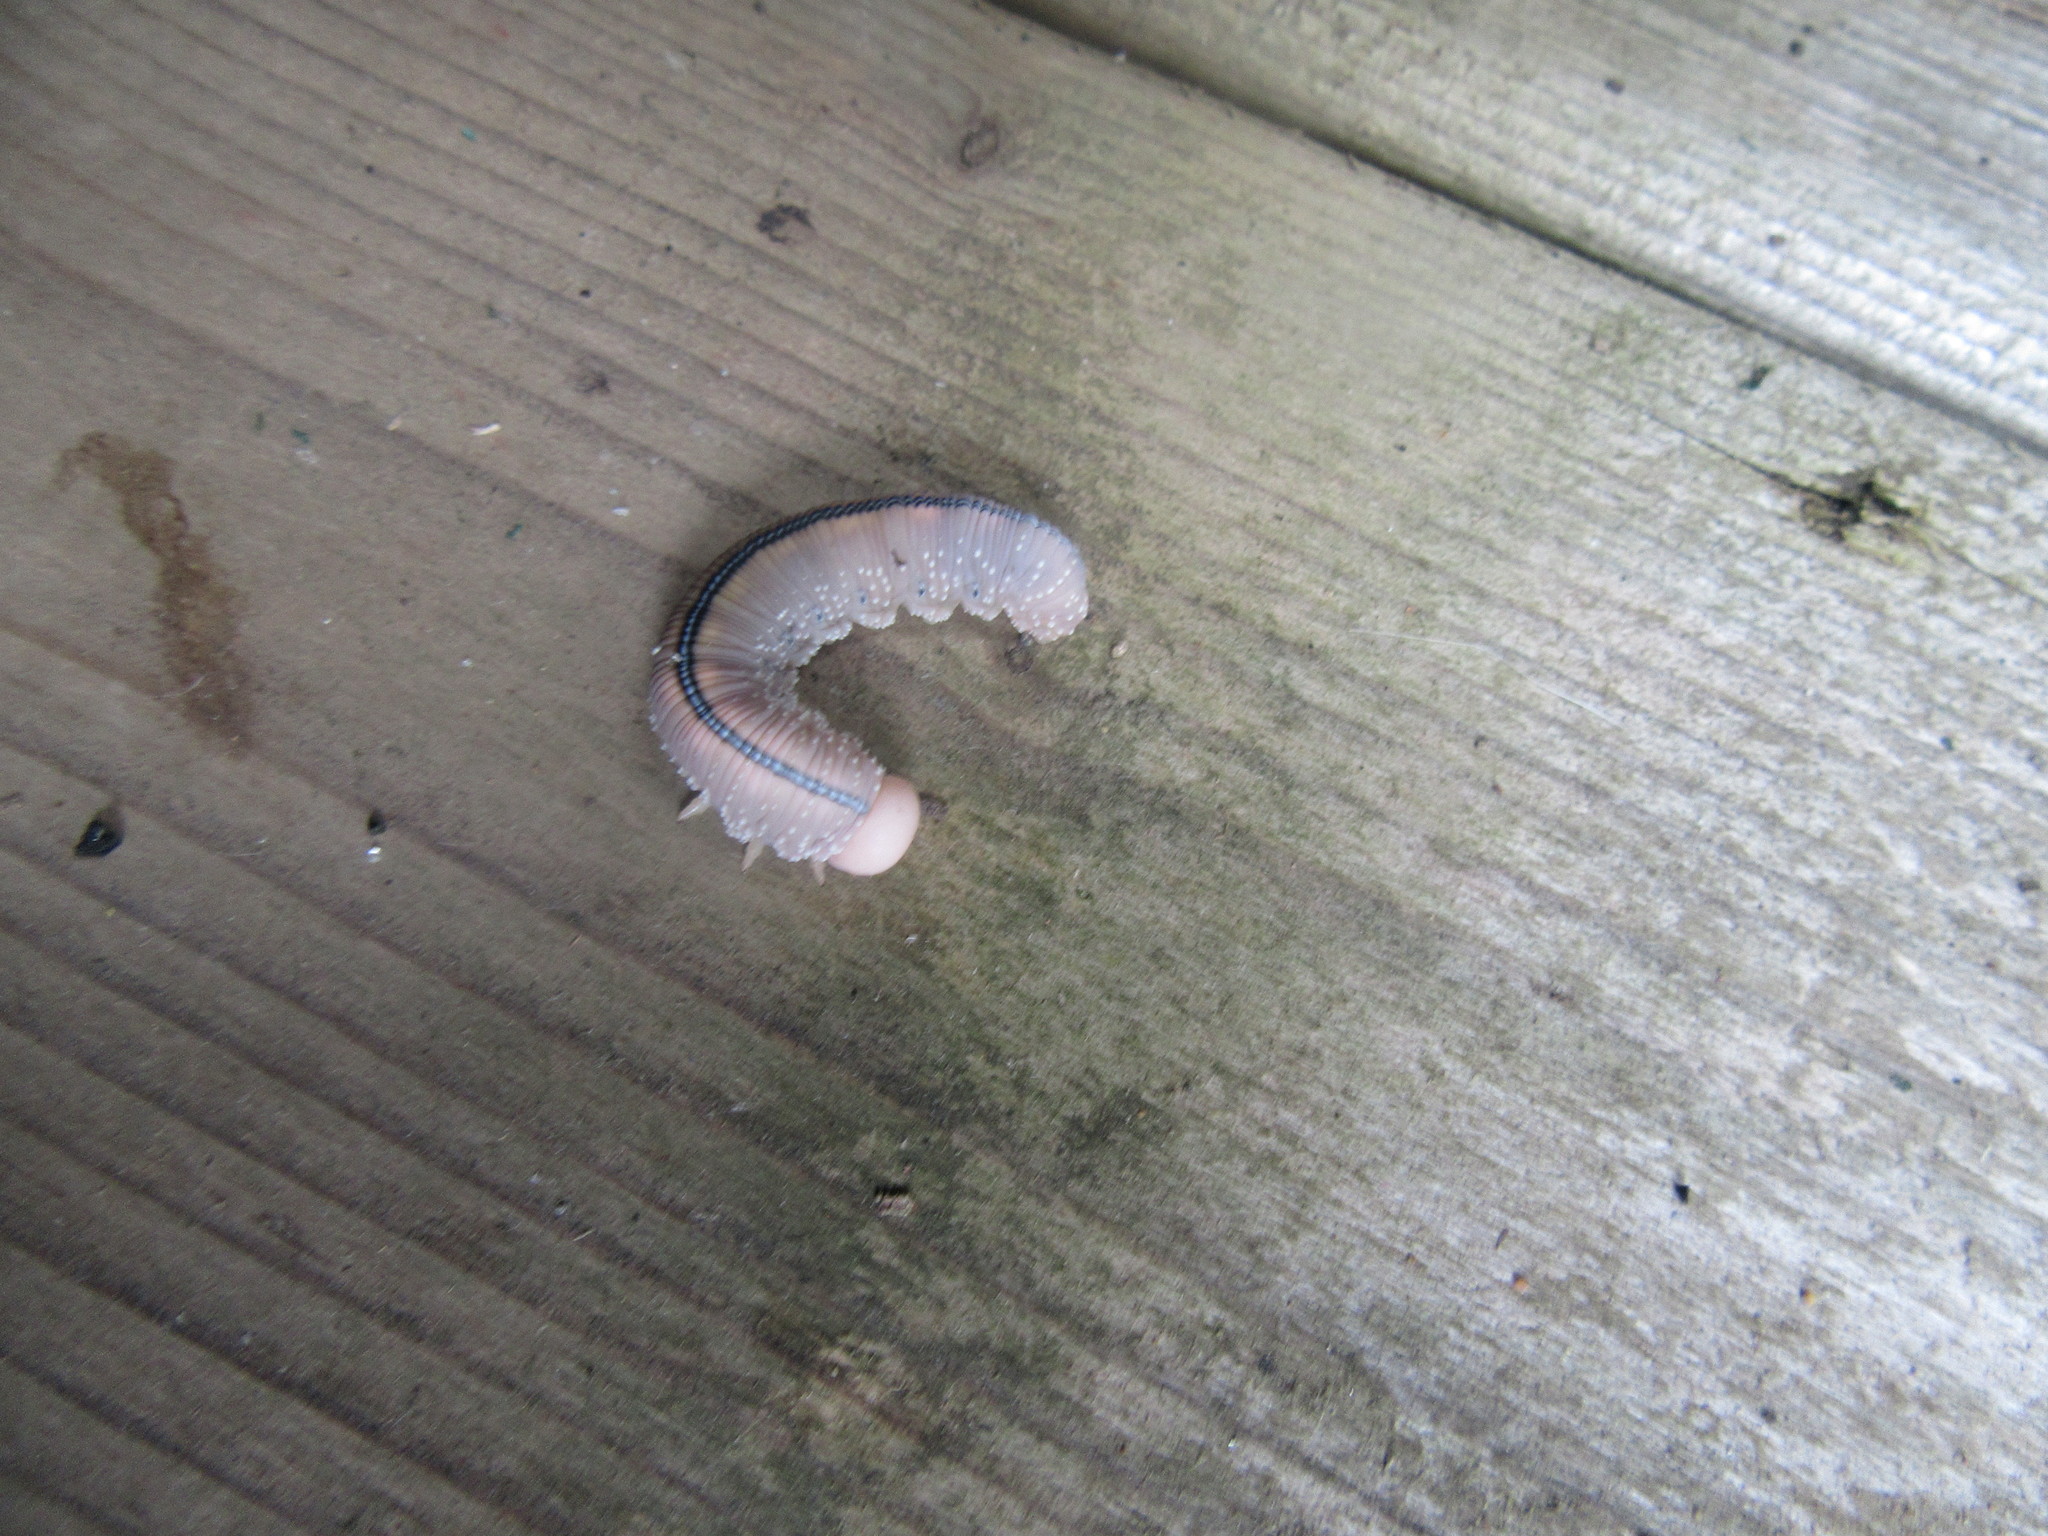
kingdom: Animalia
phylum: Arthropoda
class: Insecta
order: Hymenoptera
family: Cimbicidae
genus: Cimbex
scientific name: Cimbex americana
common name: Elm sawfly
